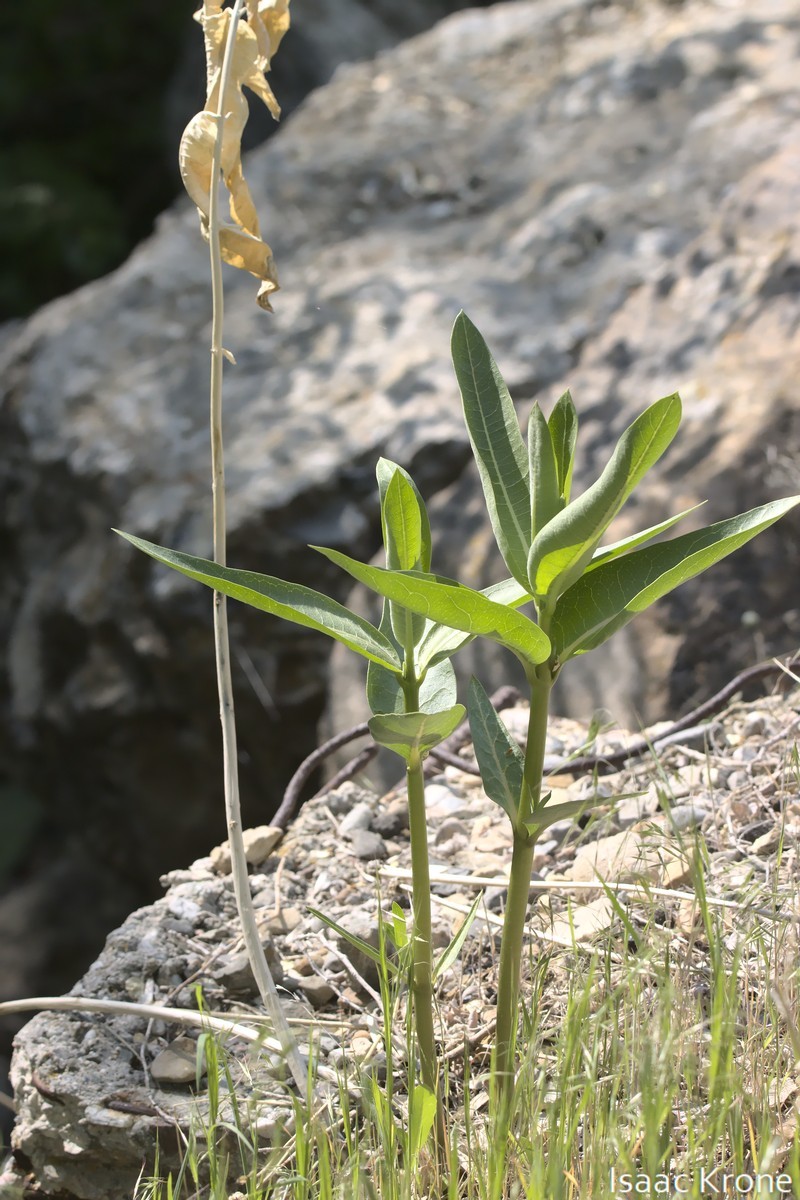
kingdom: Plantae
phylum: Tracheophyta
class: Magnoliopsida
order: Gentianales
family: Apocynaceae
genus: Asclepias
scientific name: Asclepias speciosa
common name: Showy milkweed
